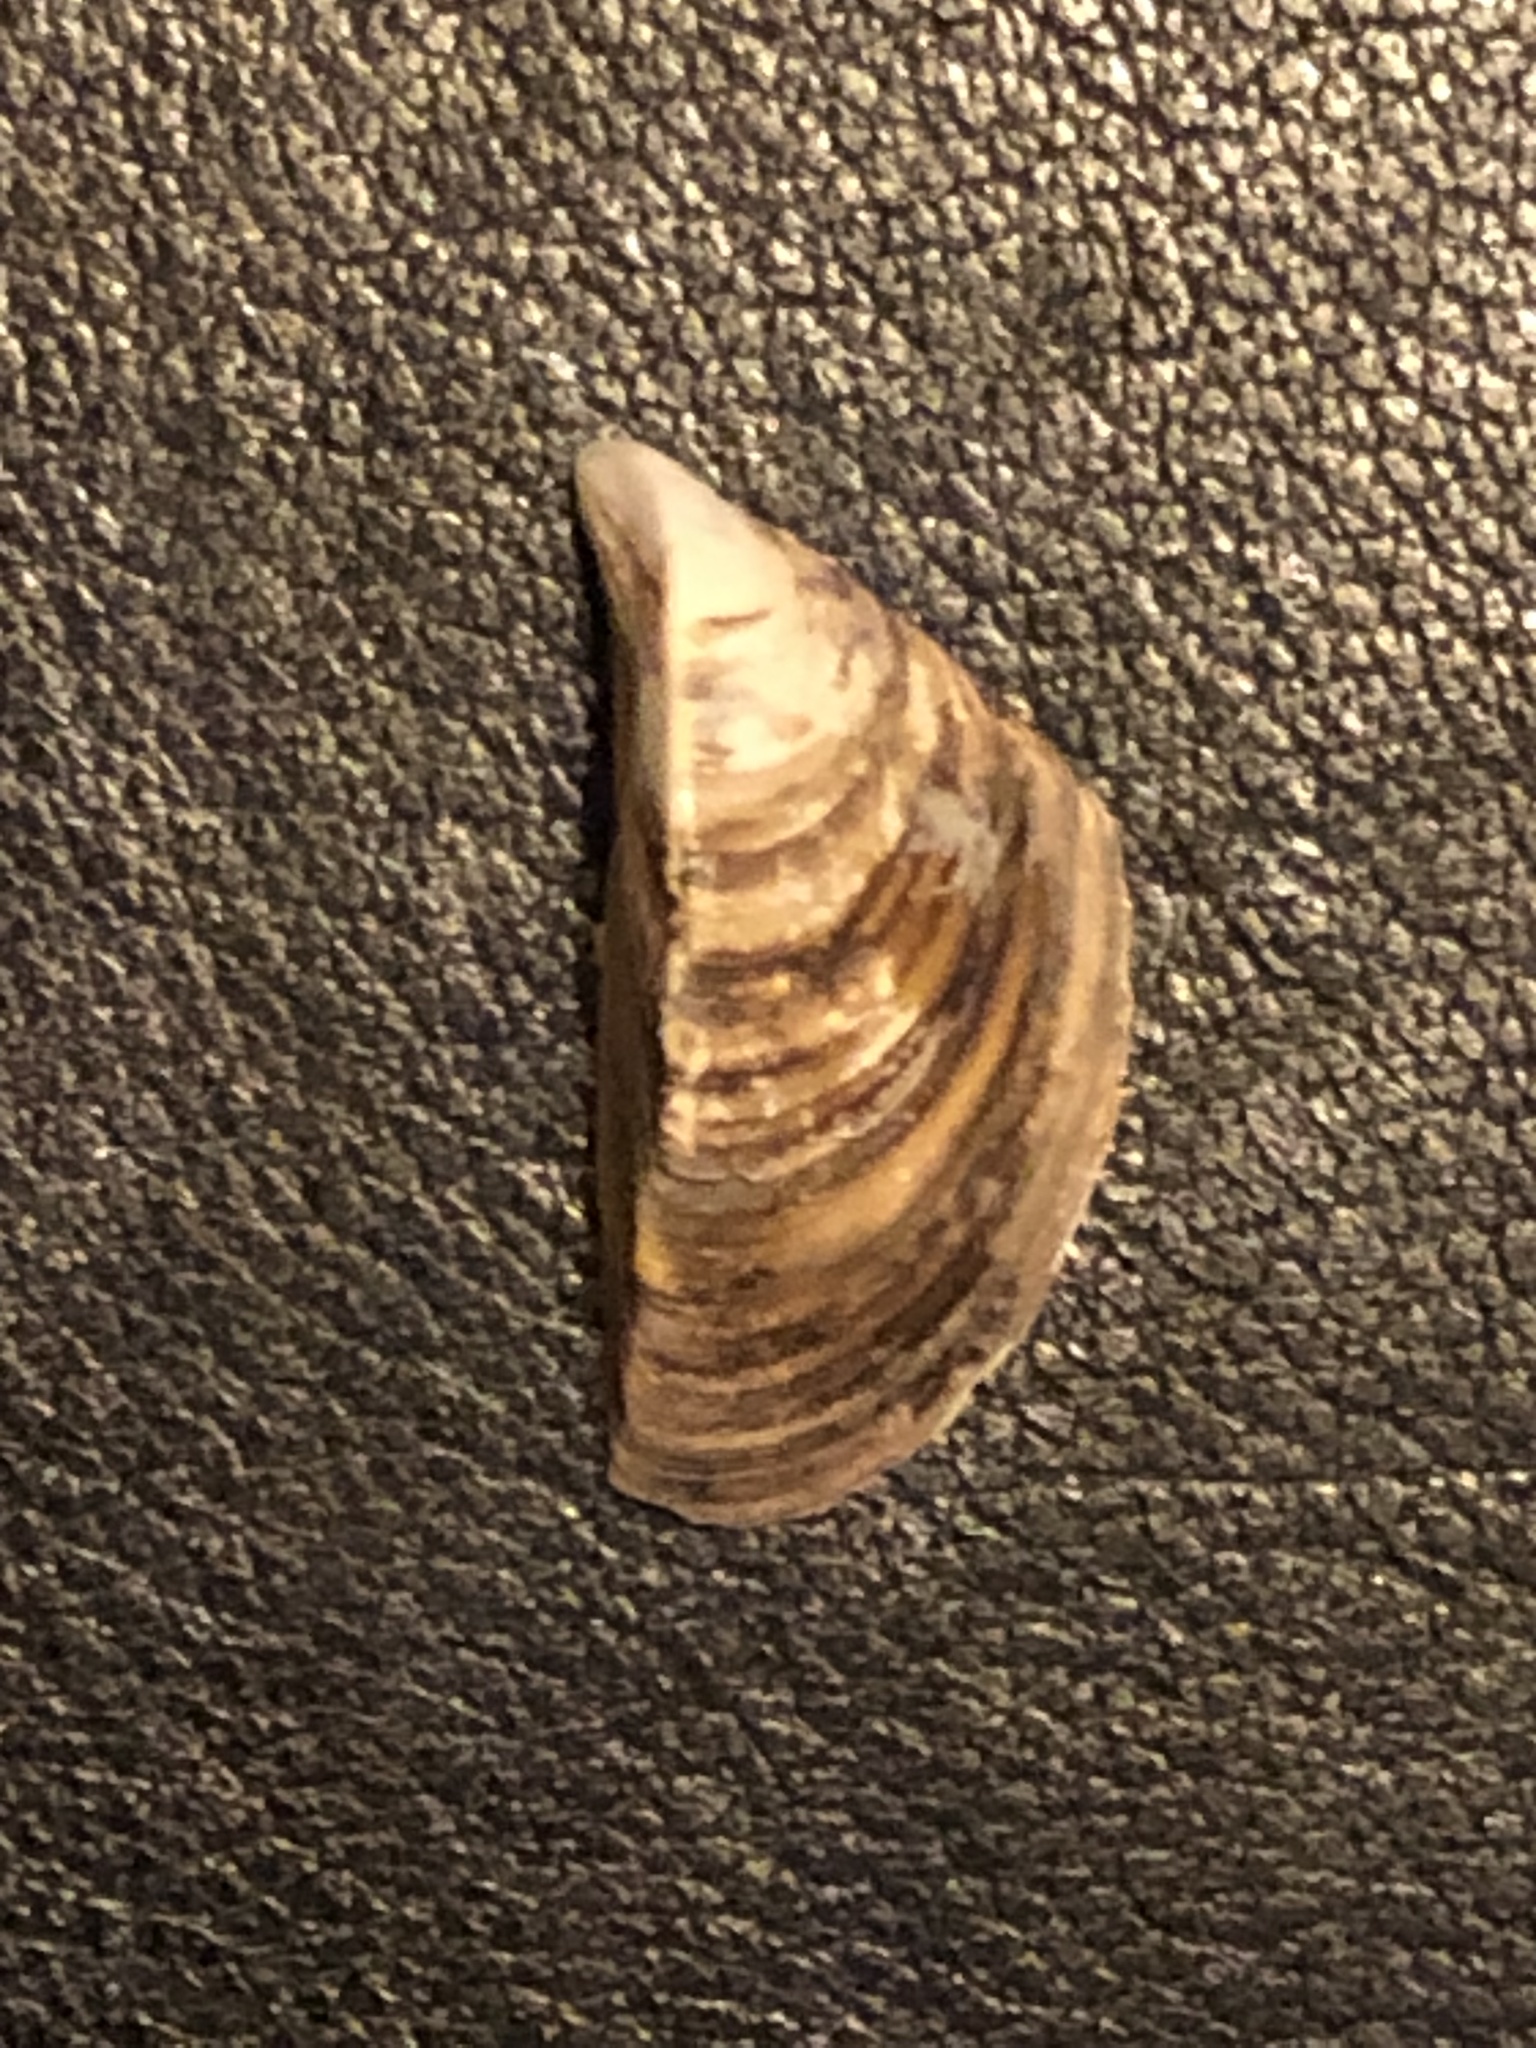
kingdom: Animalia
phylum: Mollusca
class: Bivalvia
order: Myida
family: Dreissenidae
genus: Dreissena
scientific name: Dreissena polymorpha
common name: Zebra mussel
